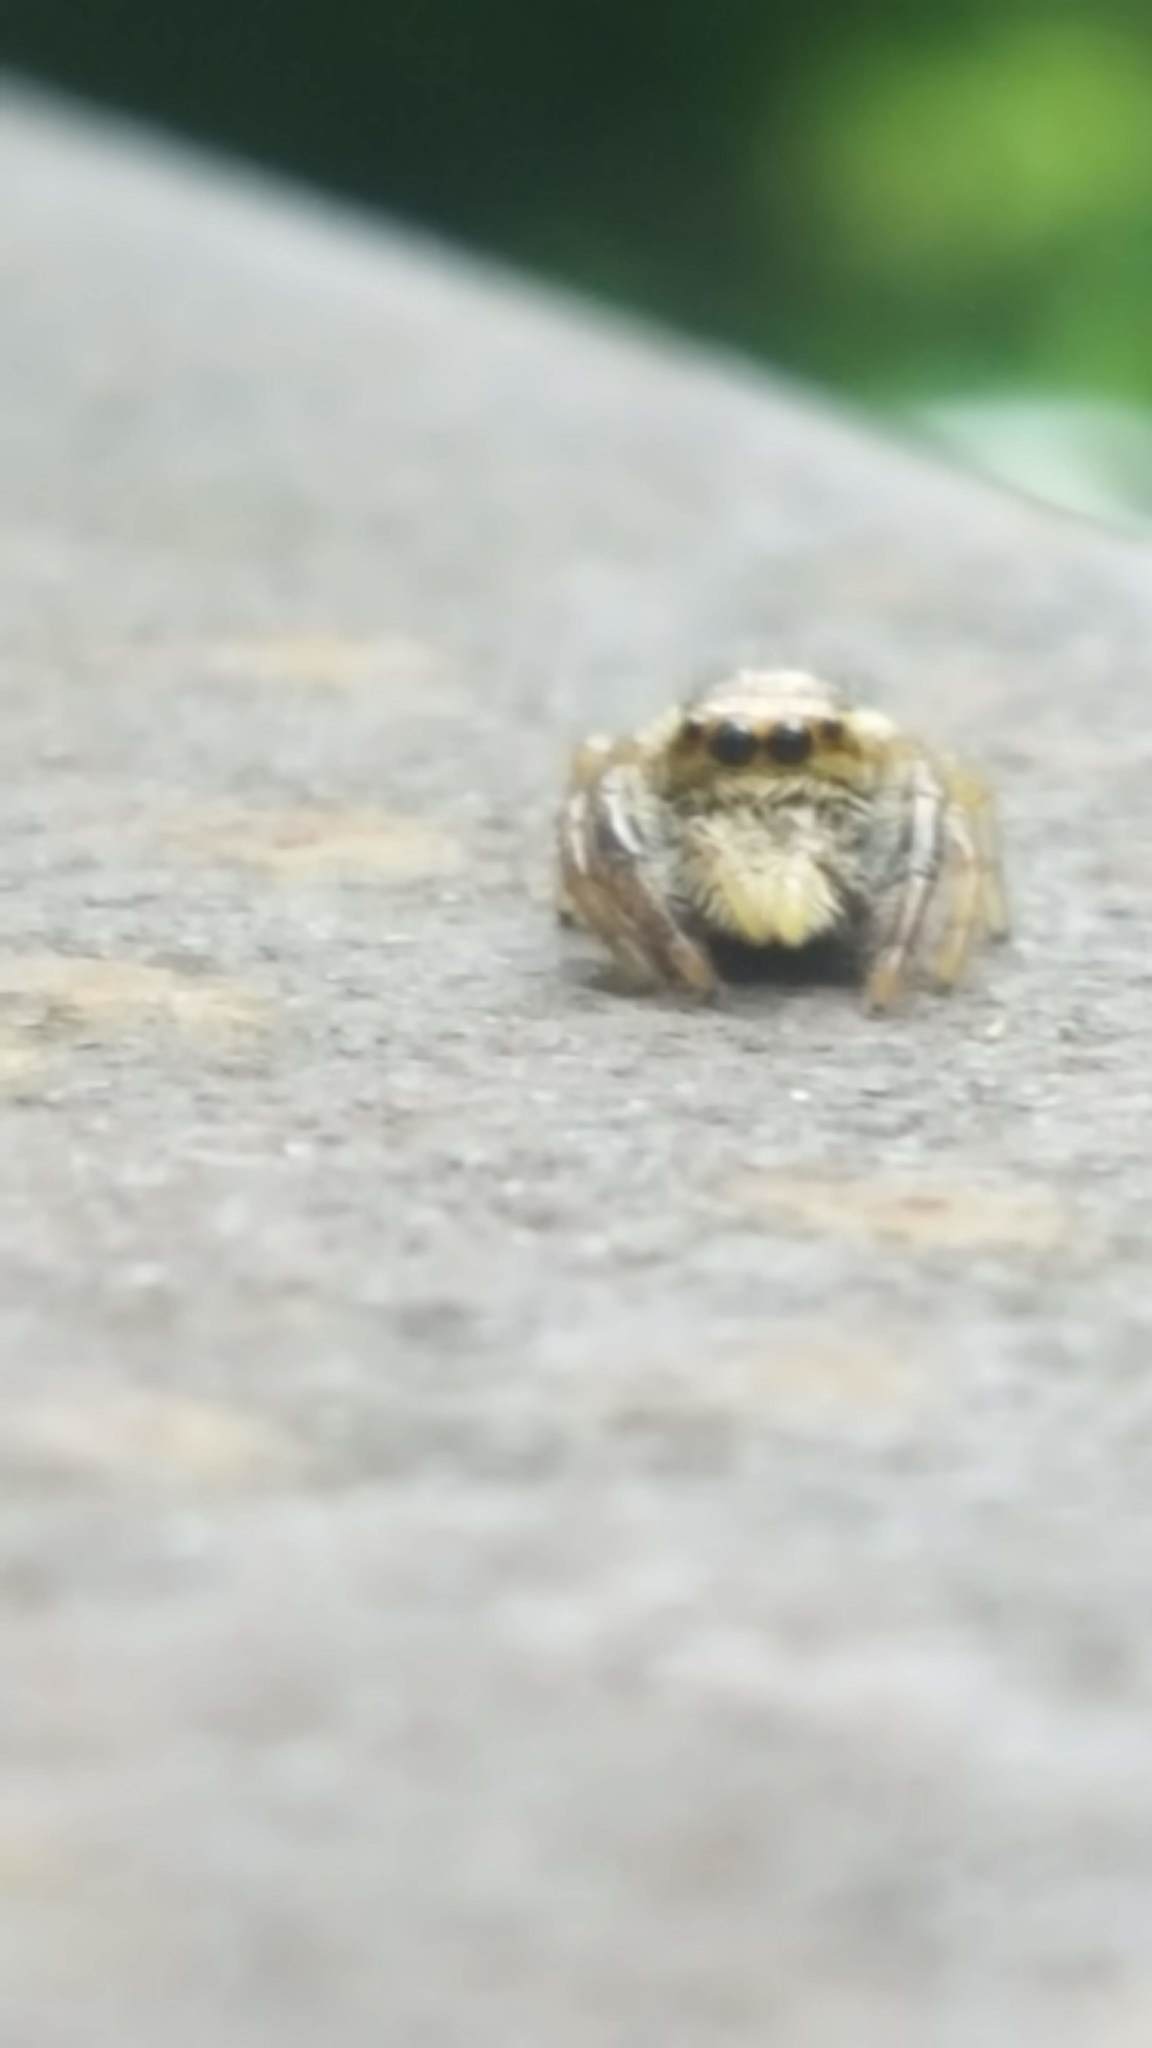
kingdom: Animalia
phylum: Arthropoda
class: Arachnida
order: Araneae
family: Salticidae
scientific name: Salticidae
